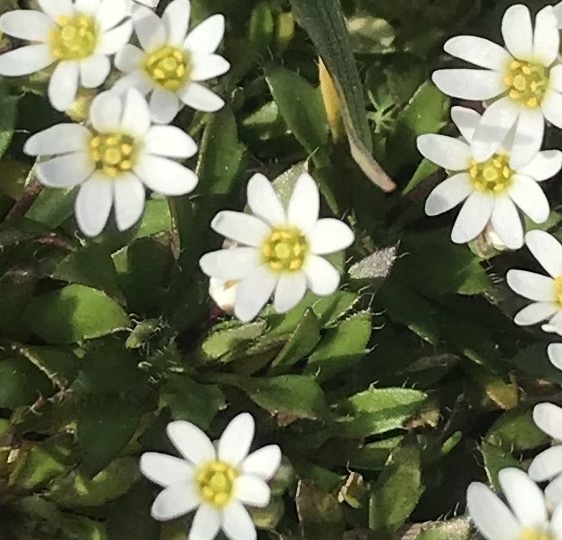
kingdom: Plantae
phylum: Tracheophyta
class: Magnoliopsida
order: Brassicales
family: Brassicaceae
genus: Draba
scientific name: Draba verna
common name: Spring draba
